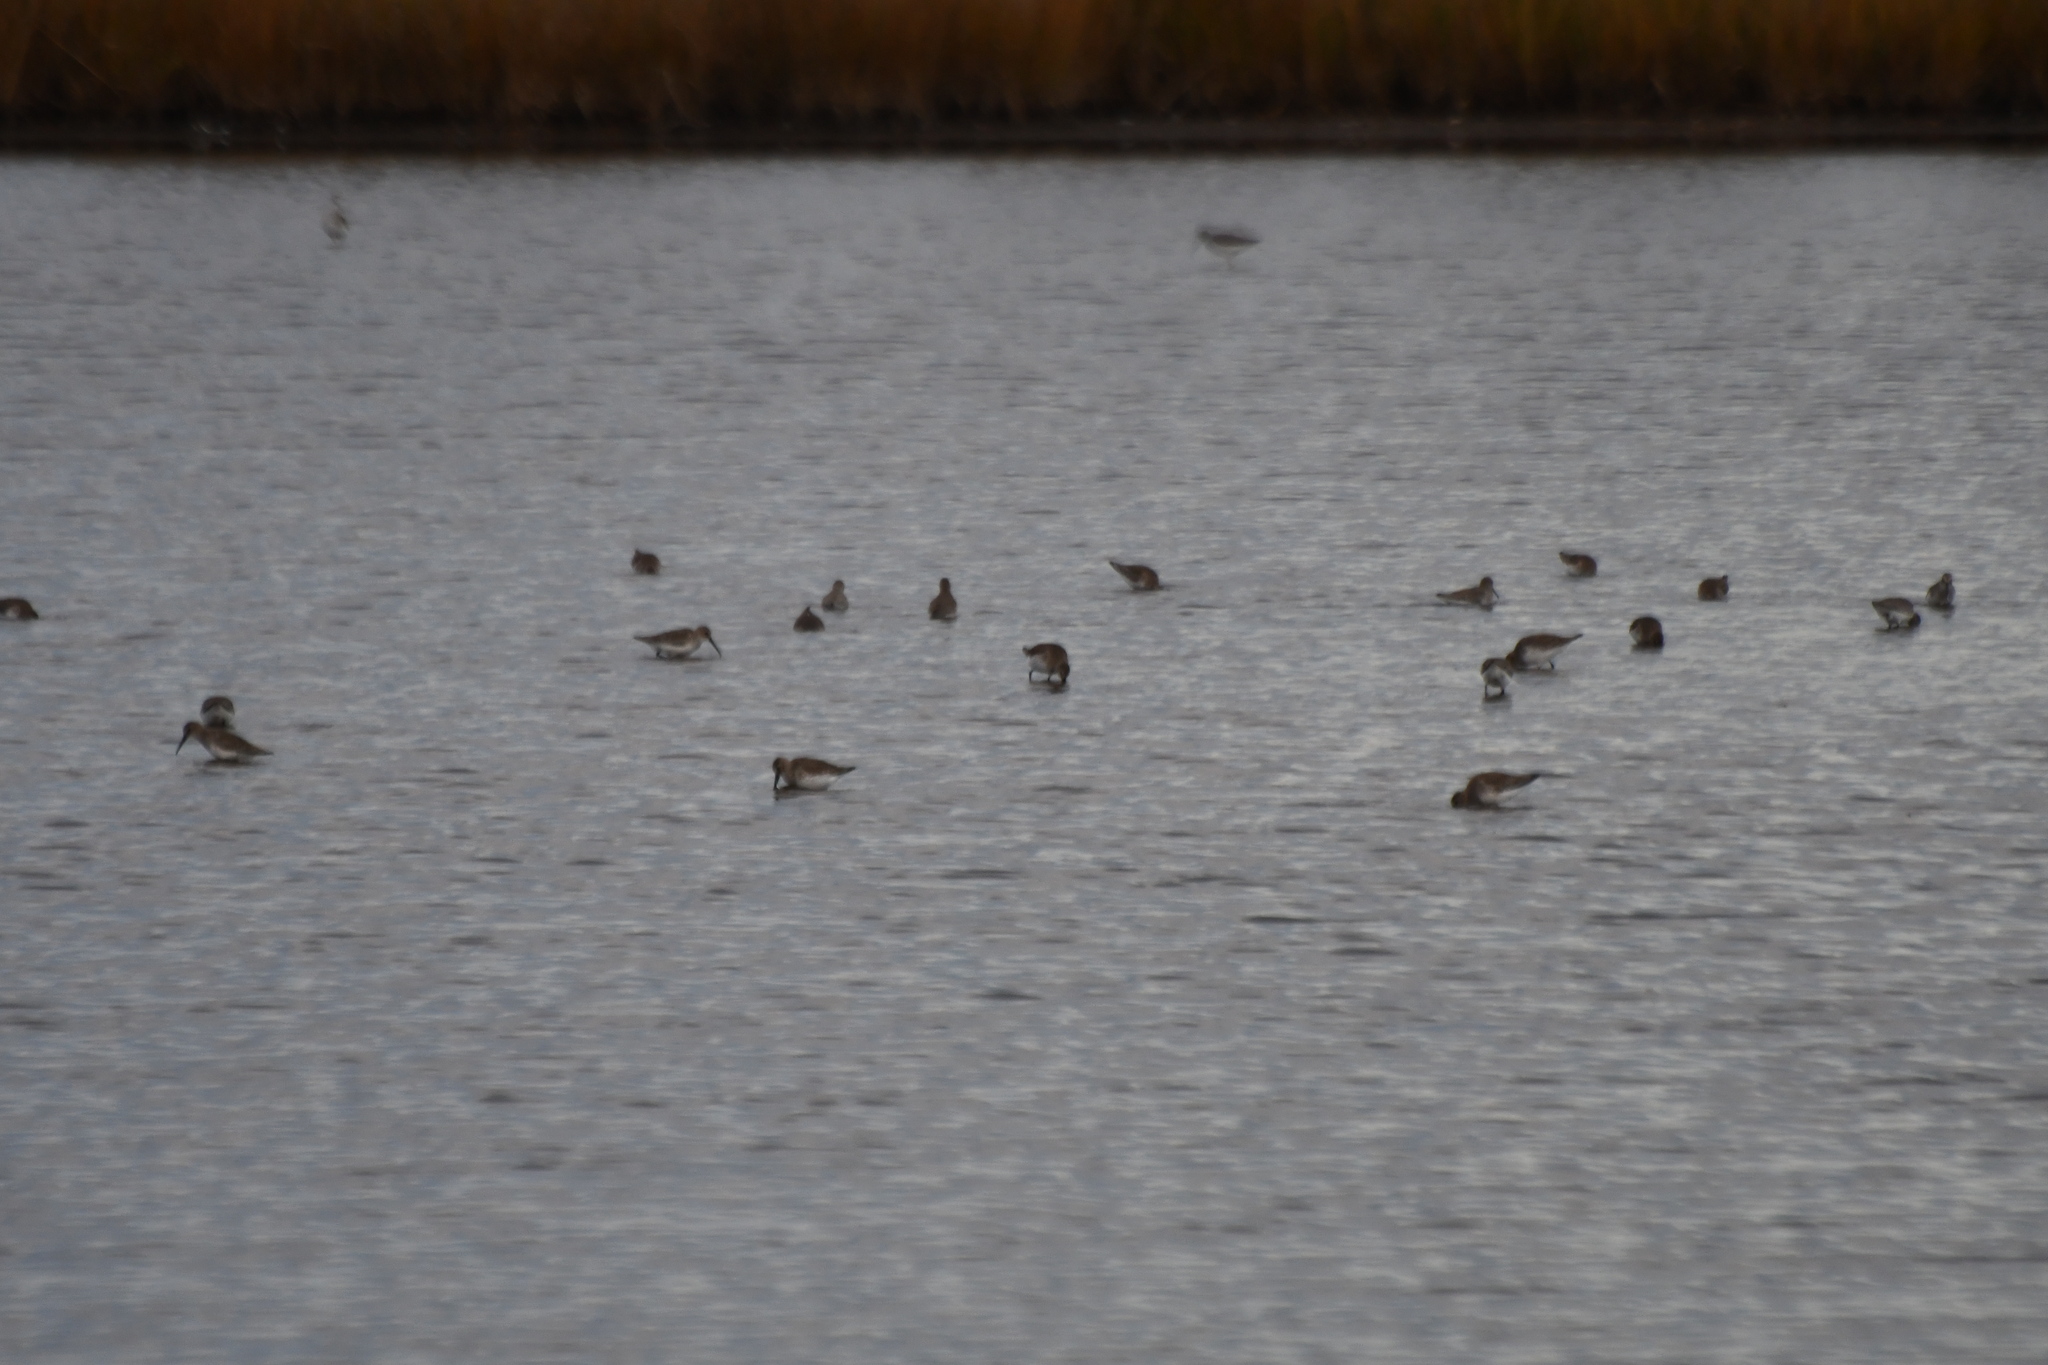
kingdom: Animalia
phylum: Chordata
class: Aves
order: Charadriiformes
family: Scolopacidae
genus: Calidris
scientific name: Calidris alpina
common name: Dunlin
